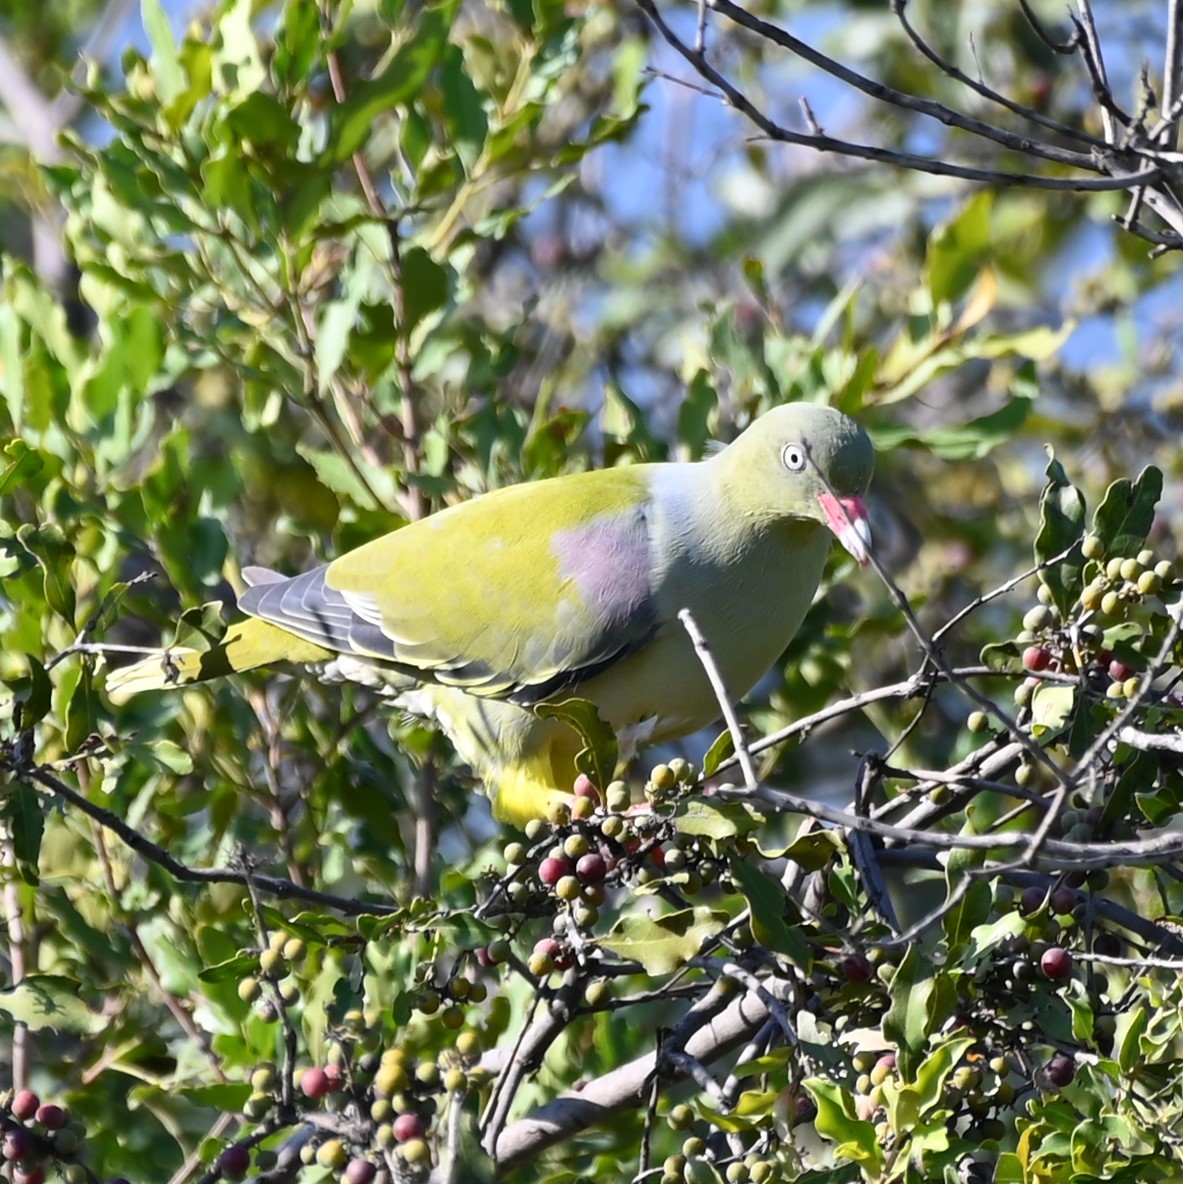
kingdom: Animalia
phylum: Chordata
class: Aves
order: Columbiformes
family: Columbidae
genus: Treron
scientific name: Treron calvus
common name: African green pigeon
